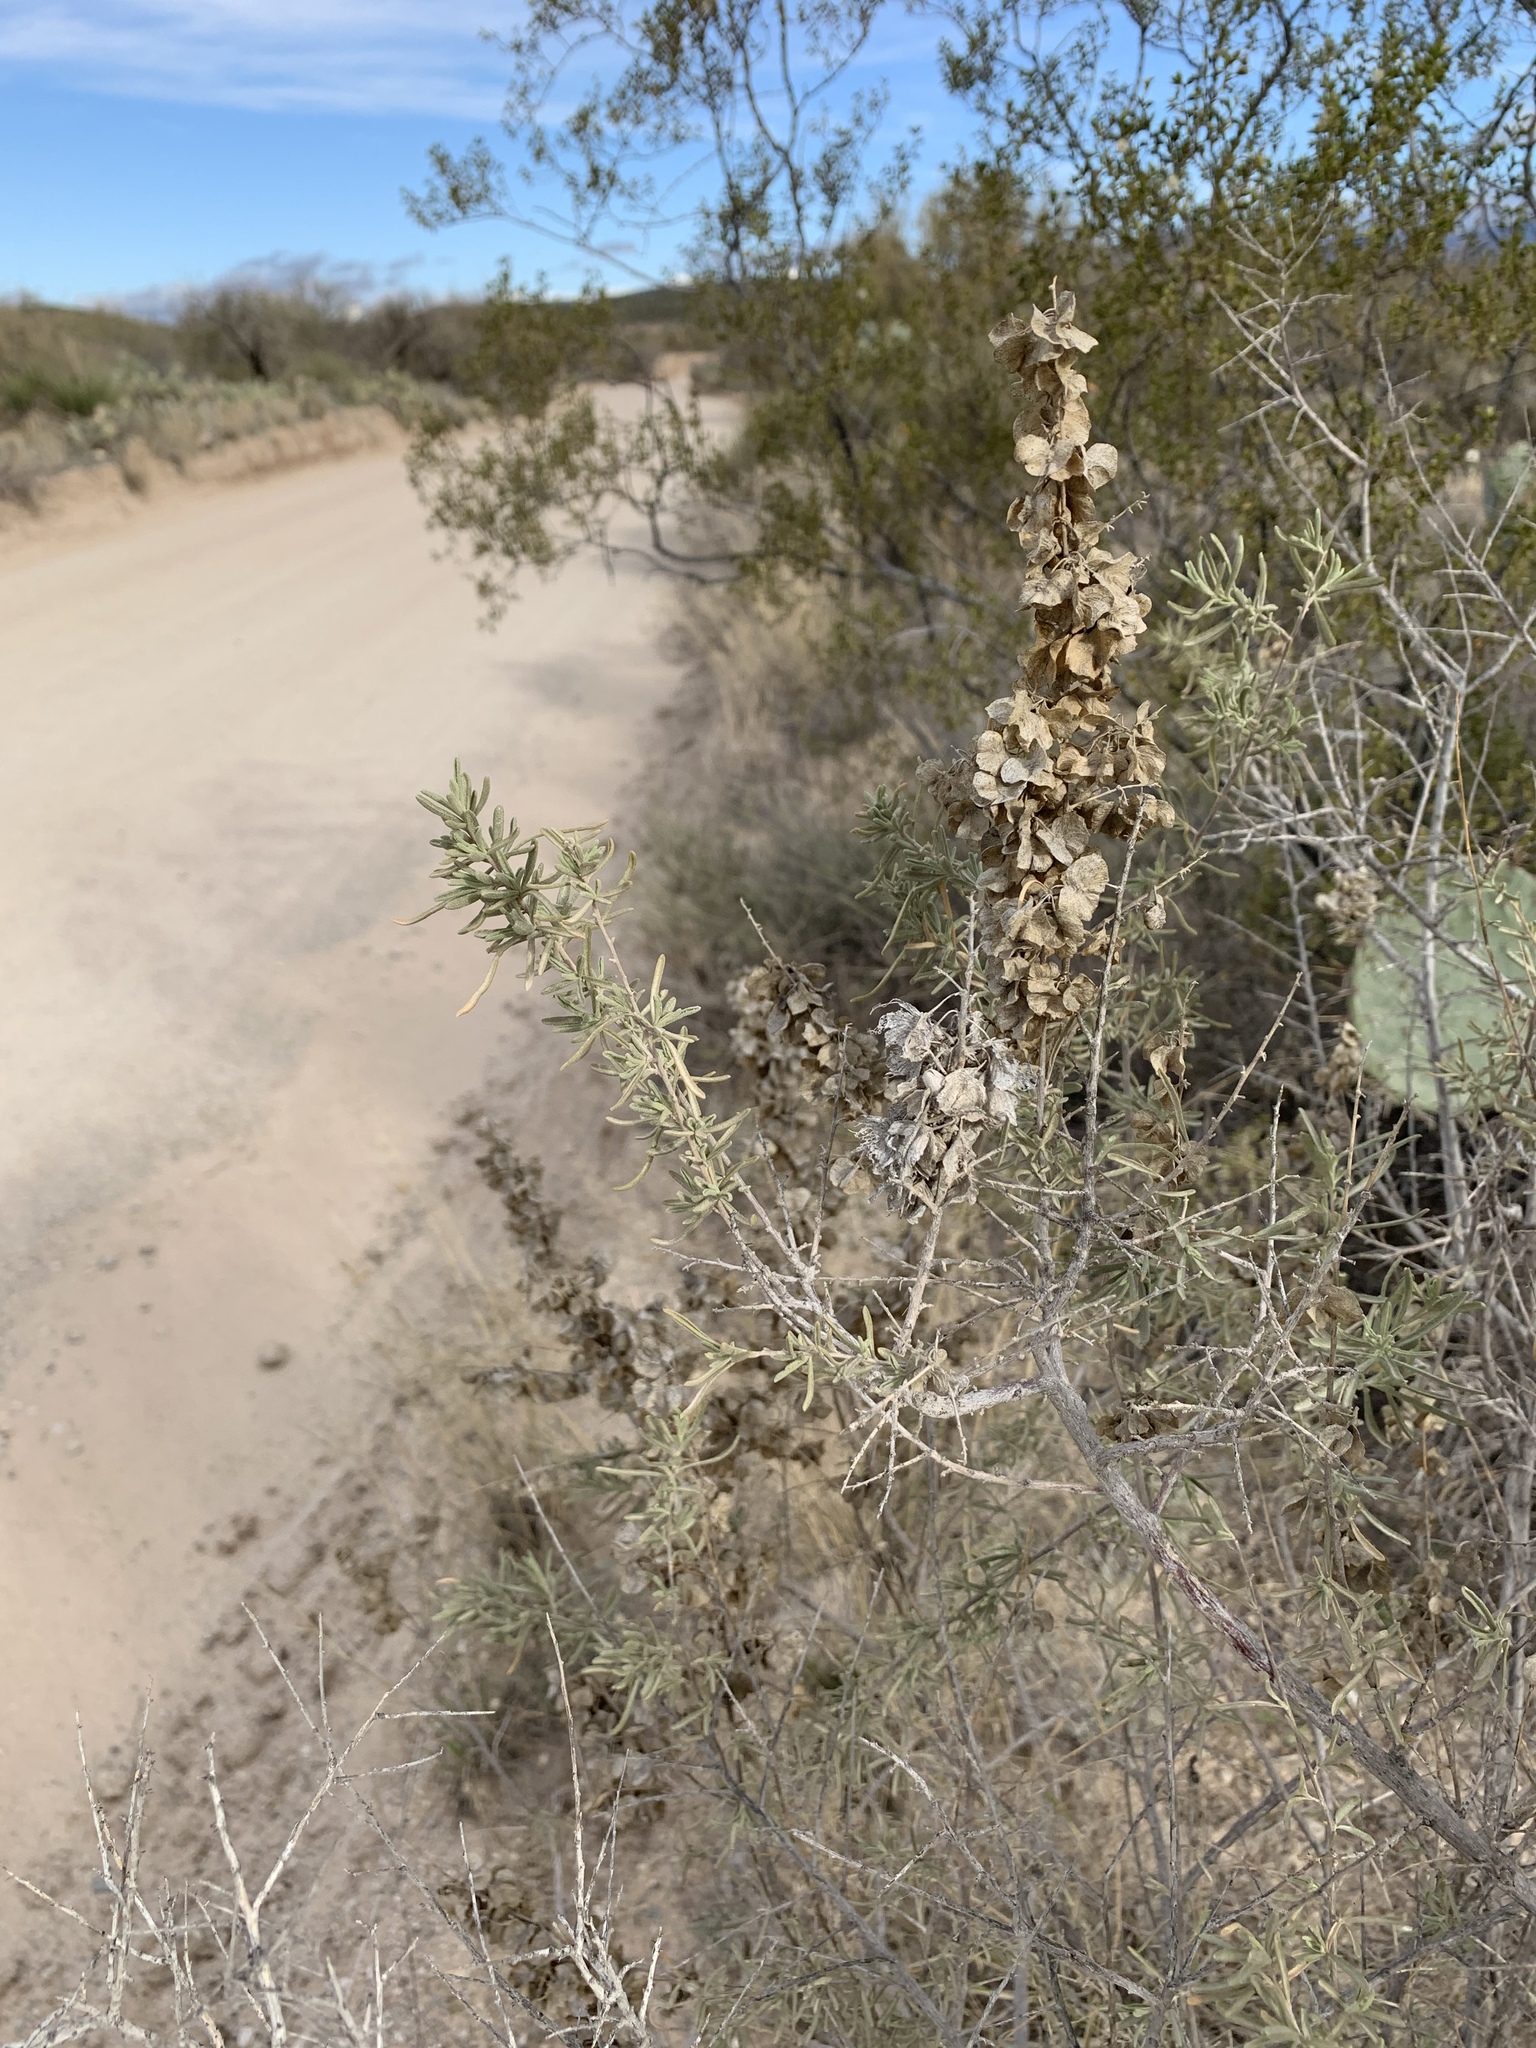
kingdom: Plantae
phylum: Tracheophyta
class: Magnoliopsida
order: Caryophyllales
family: Amaranthaceae
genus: Atriplex
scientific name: Atriplex canescens
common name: Four-wing saltbush
